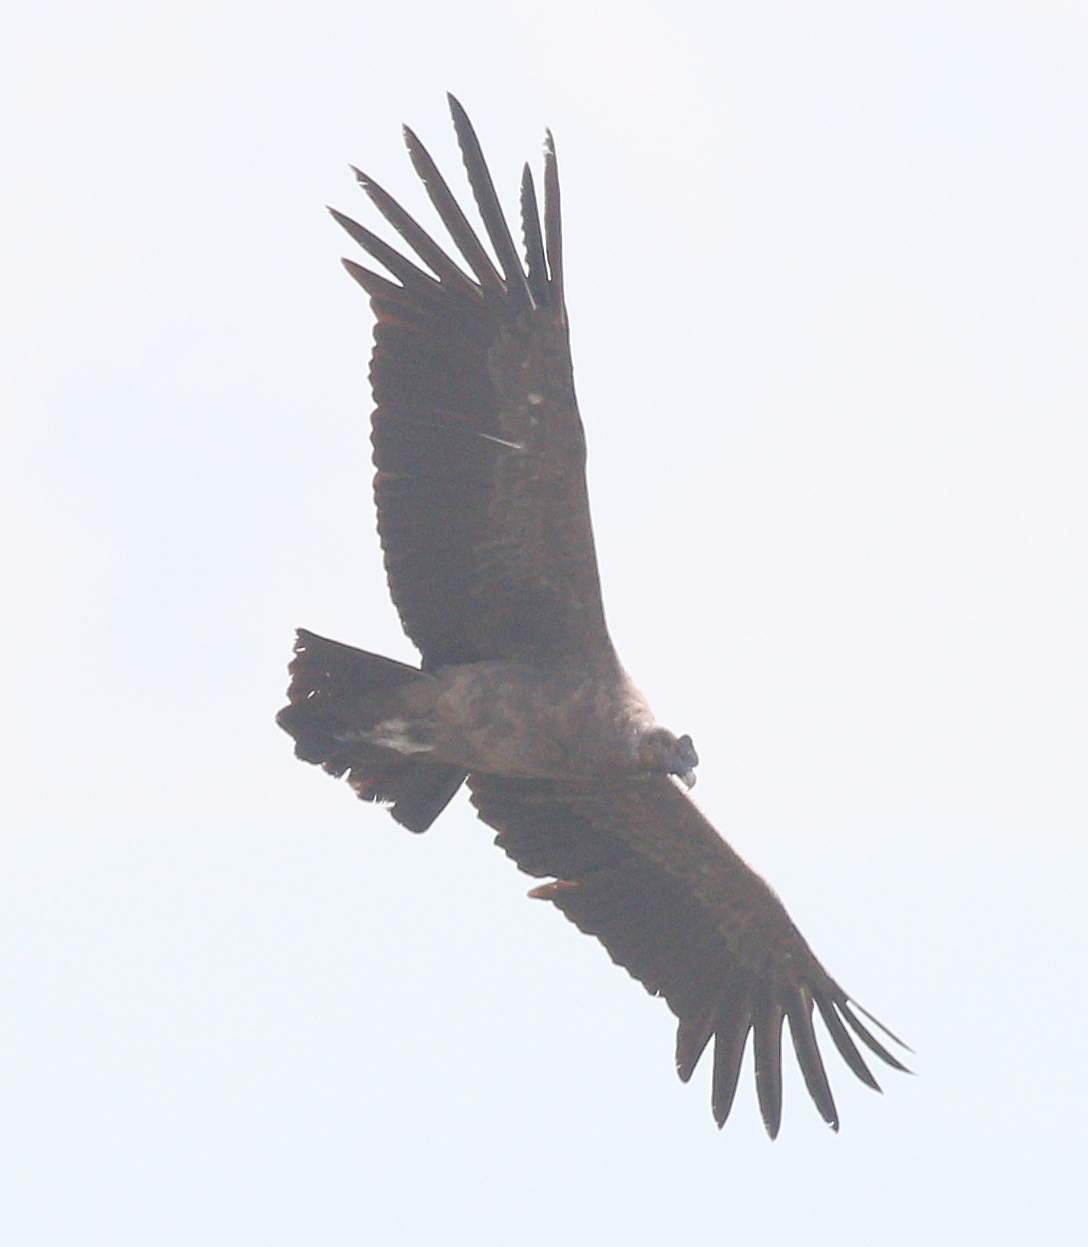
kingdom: Animalia
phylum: Chordata
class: Aves
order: Accipitriformes
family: Cathartidae
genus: Vultur
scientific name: Vultur gryphus
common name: Andean condor
